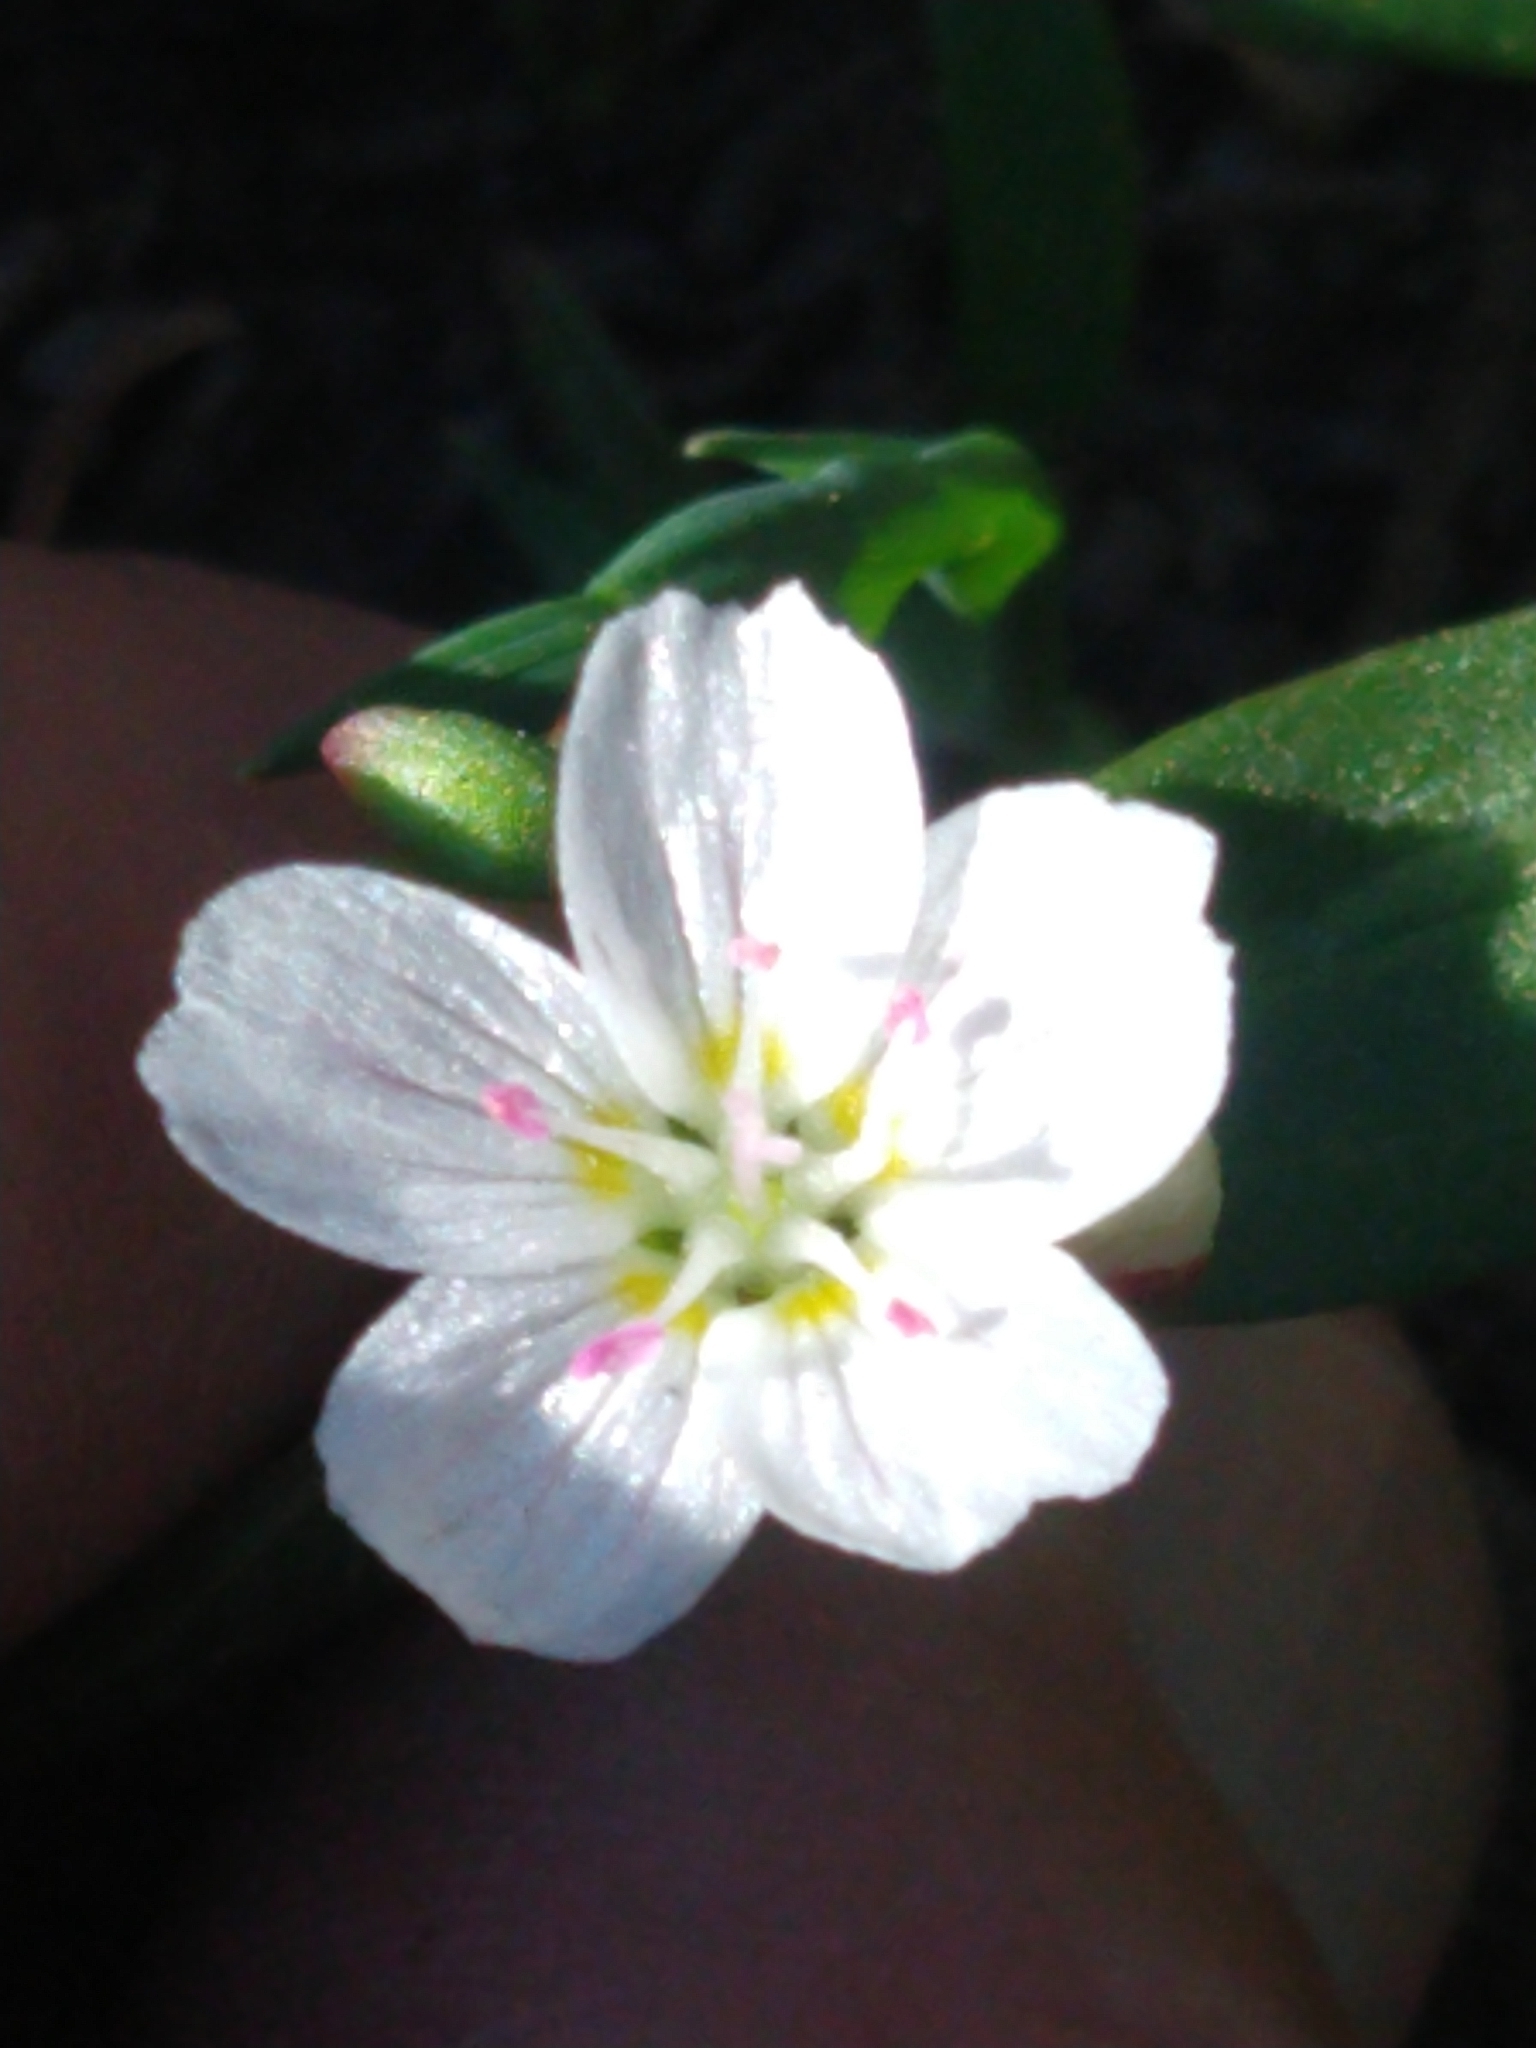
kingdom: Plantae
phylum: Tracheophyta
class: Magnoliopsida
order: Caryophyllales
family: Montiaceae
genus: Claytonia
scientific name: Claytonia lanceolata
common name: Western spring-beauty
